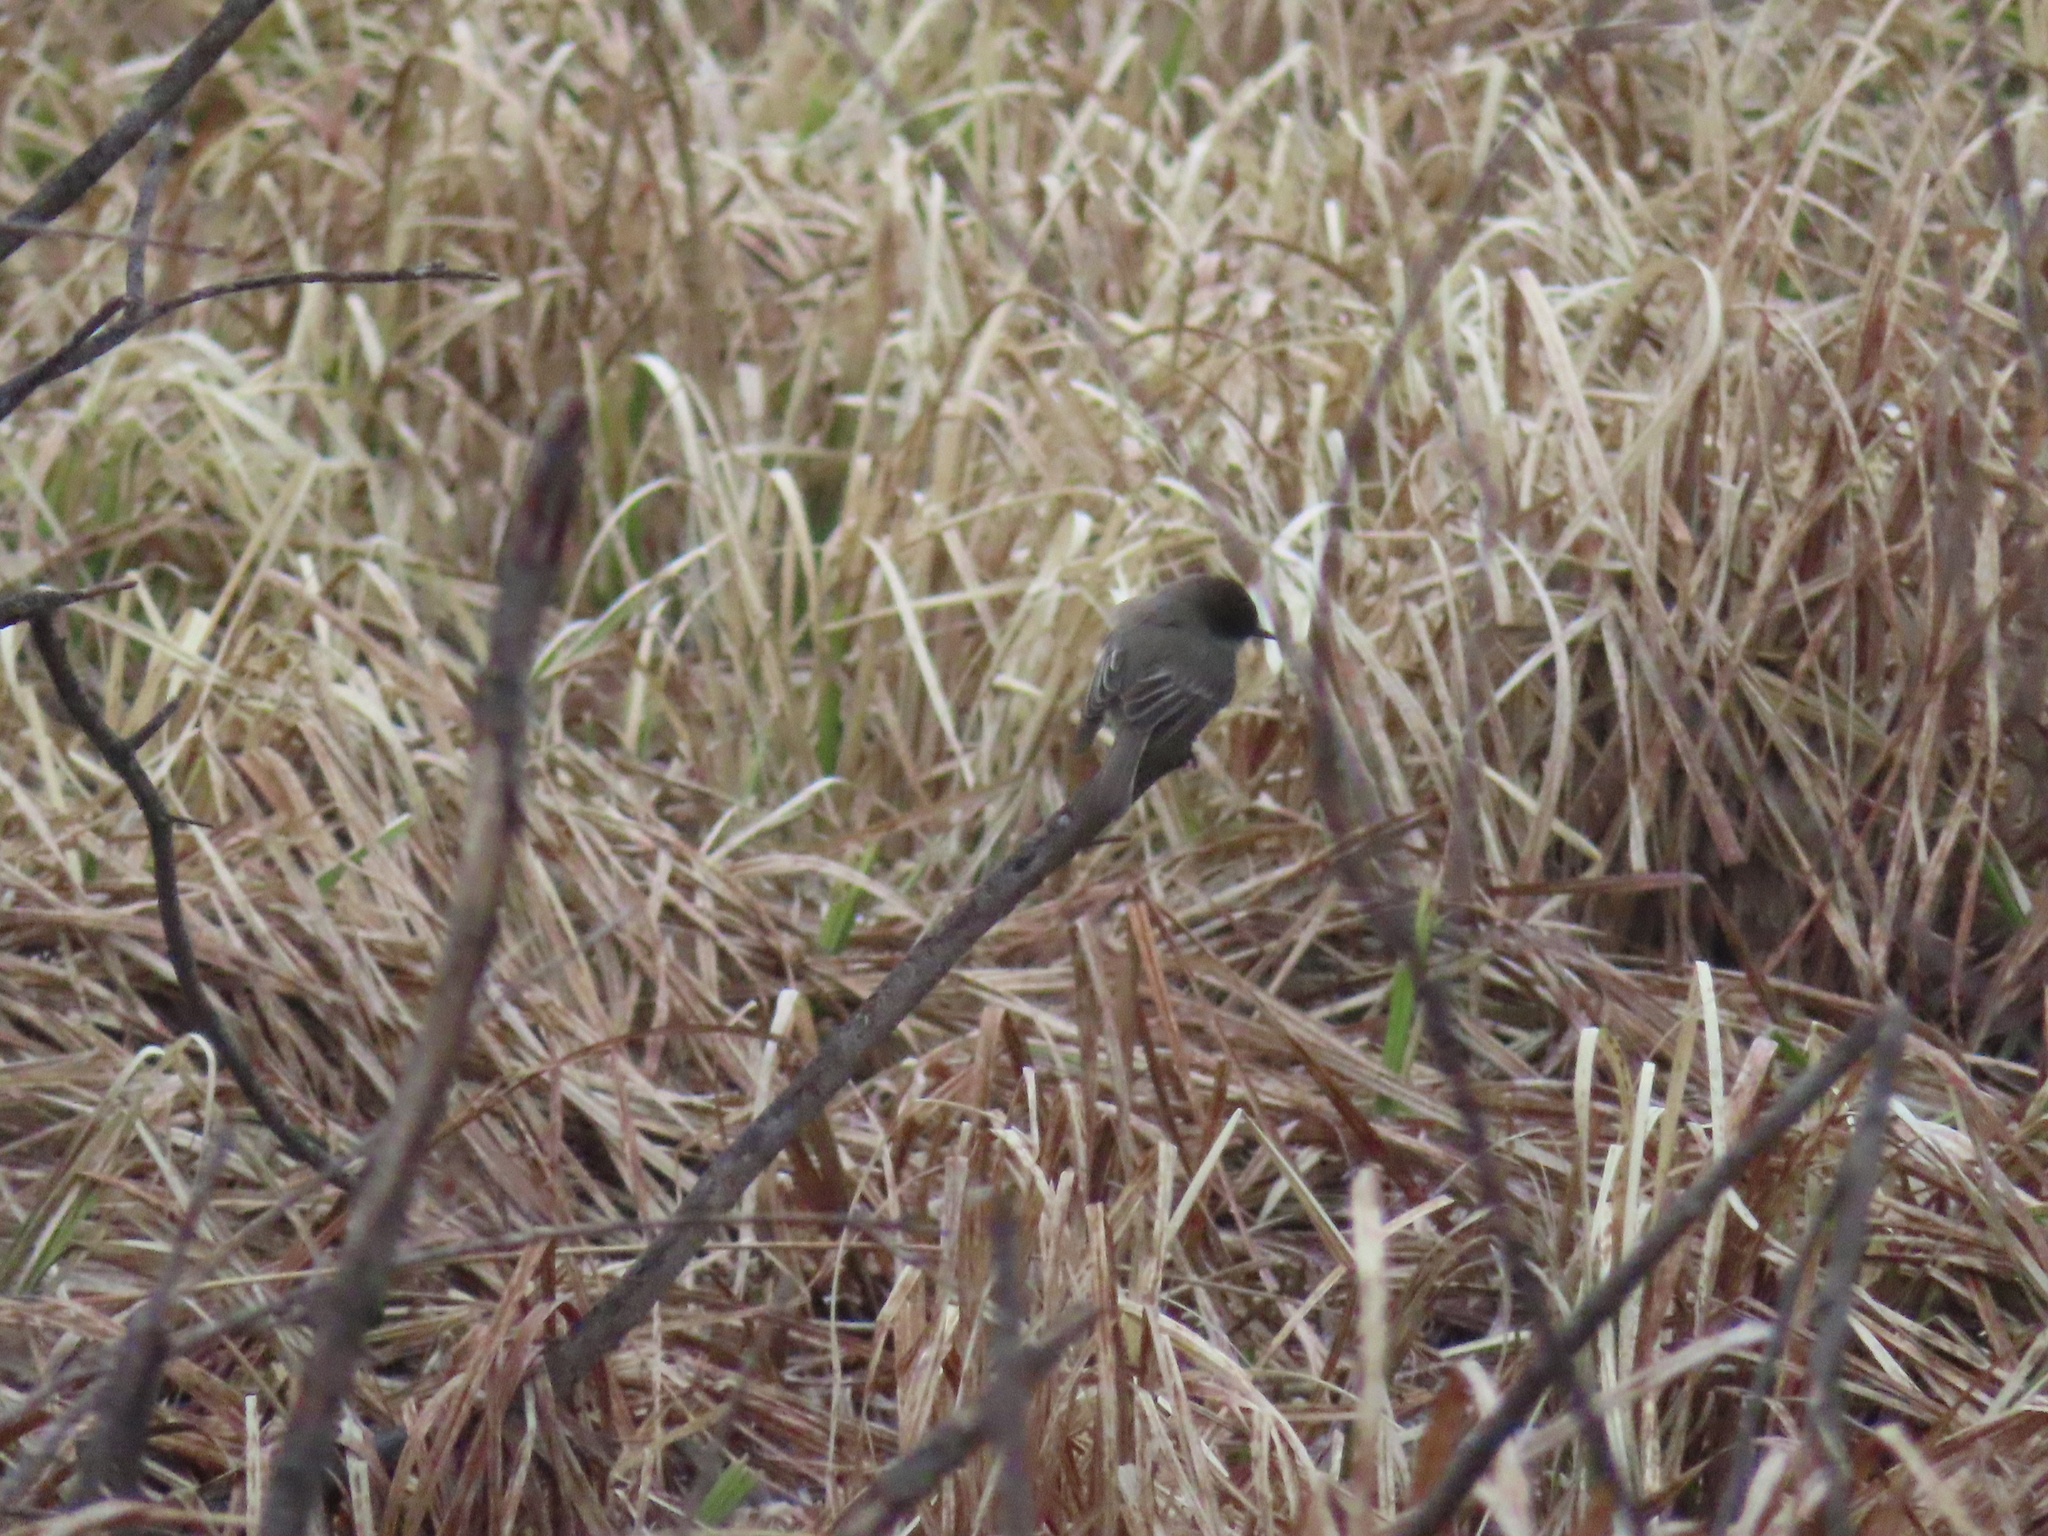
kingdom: Animalia
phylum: Chordata
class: Aves
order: Passeriformes
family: Tyrannidae
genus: Sayornis
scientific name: Sayornis phoebe
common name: Eastern phoebe
